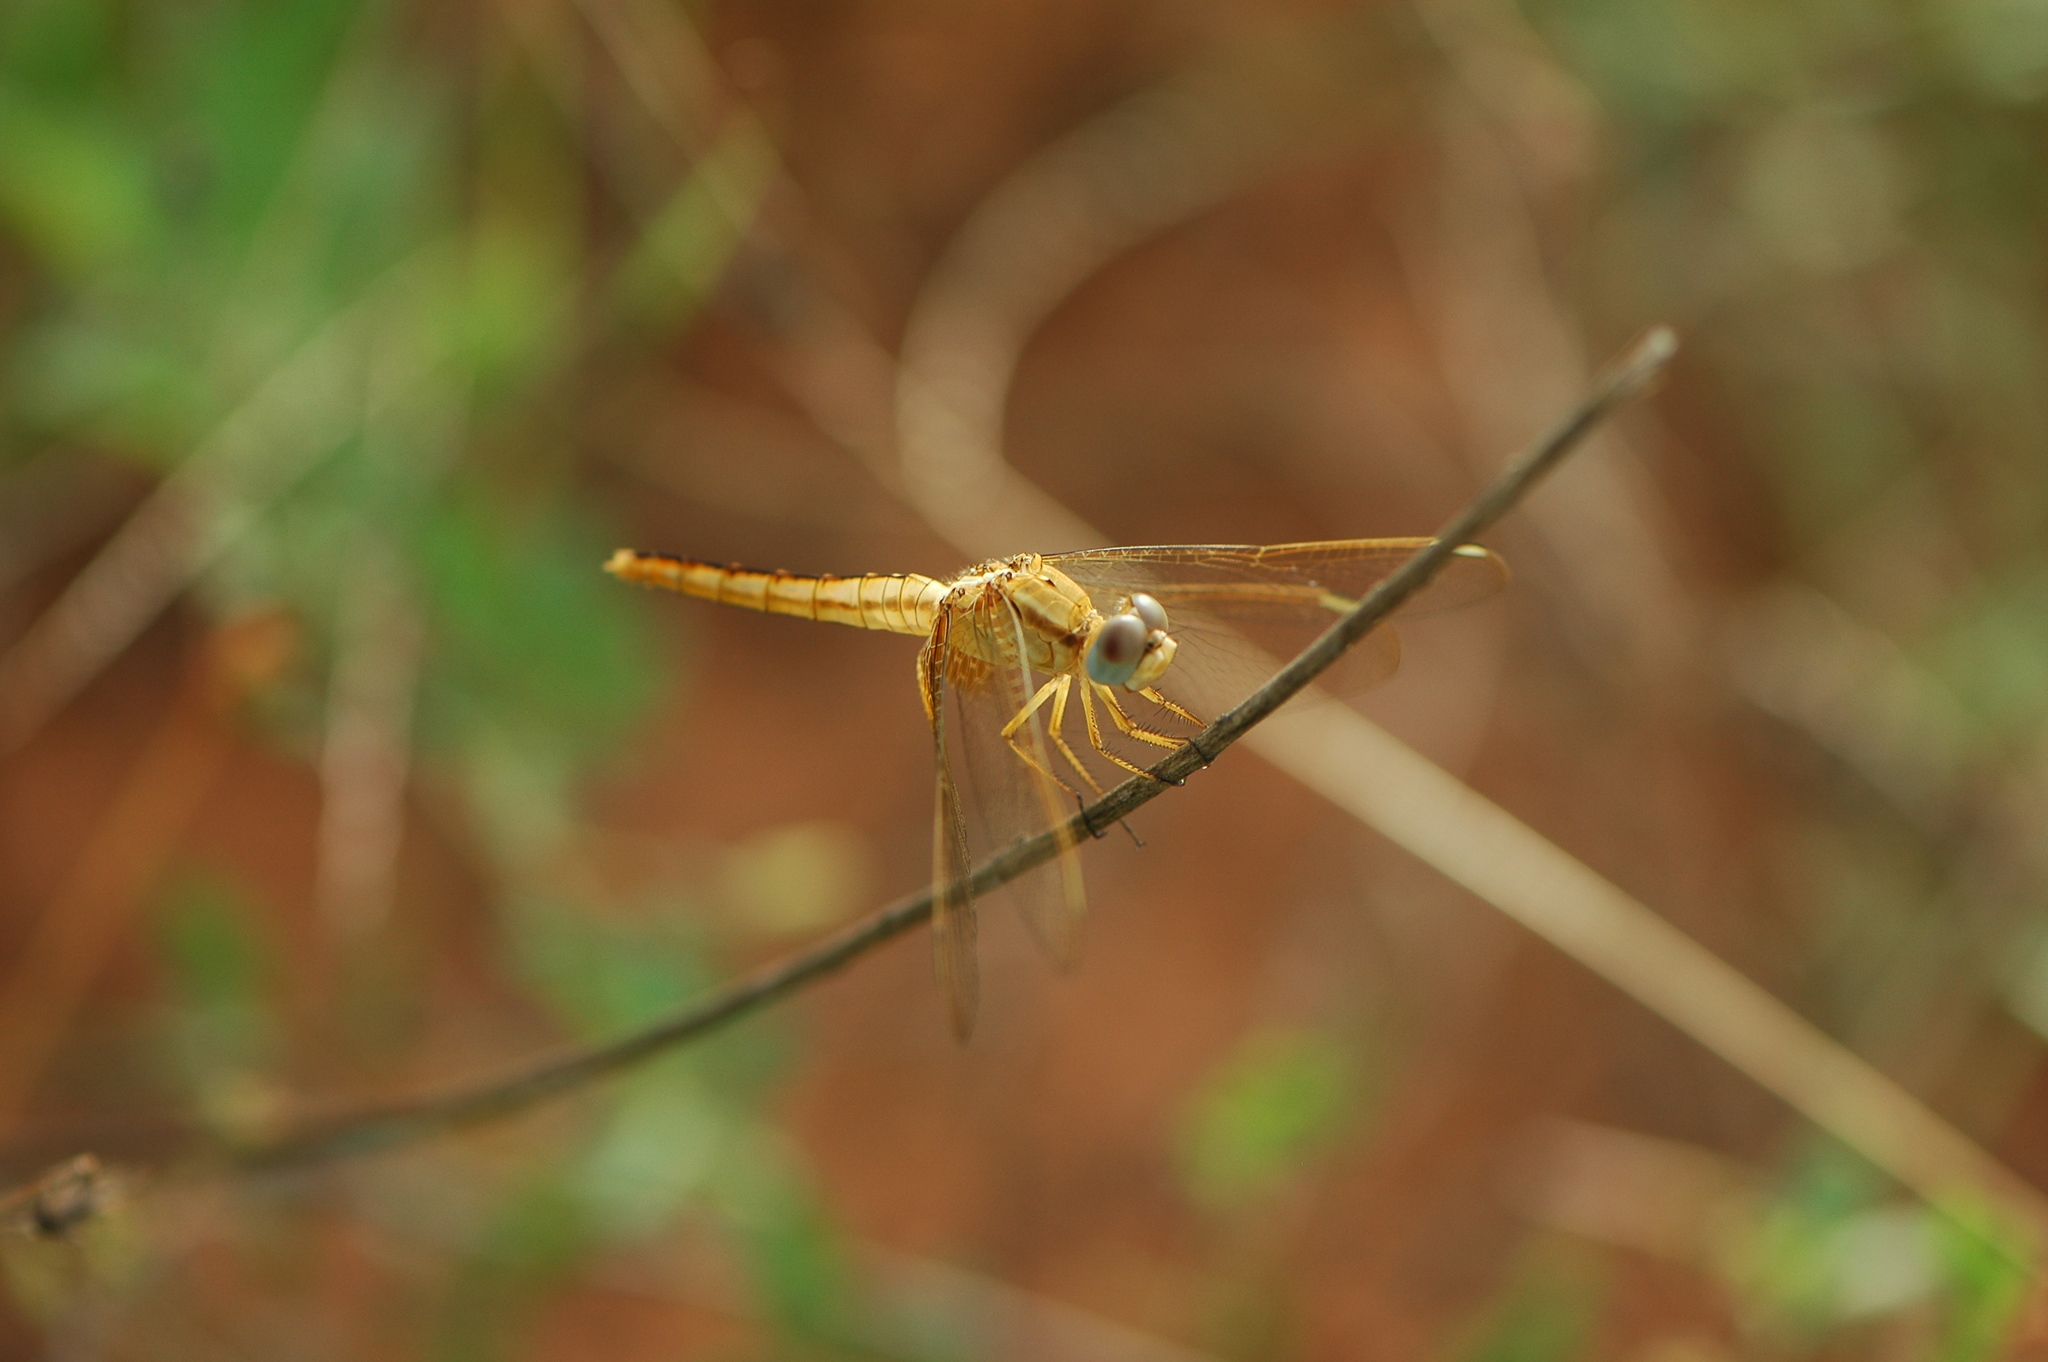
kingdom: Animalia
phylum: Arthropoda
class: Insecta
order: Odonata
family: Libellulidae
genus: Crocothemis
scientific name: Crocothemis erythraea
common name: Scarlet dragonfly
